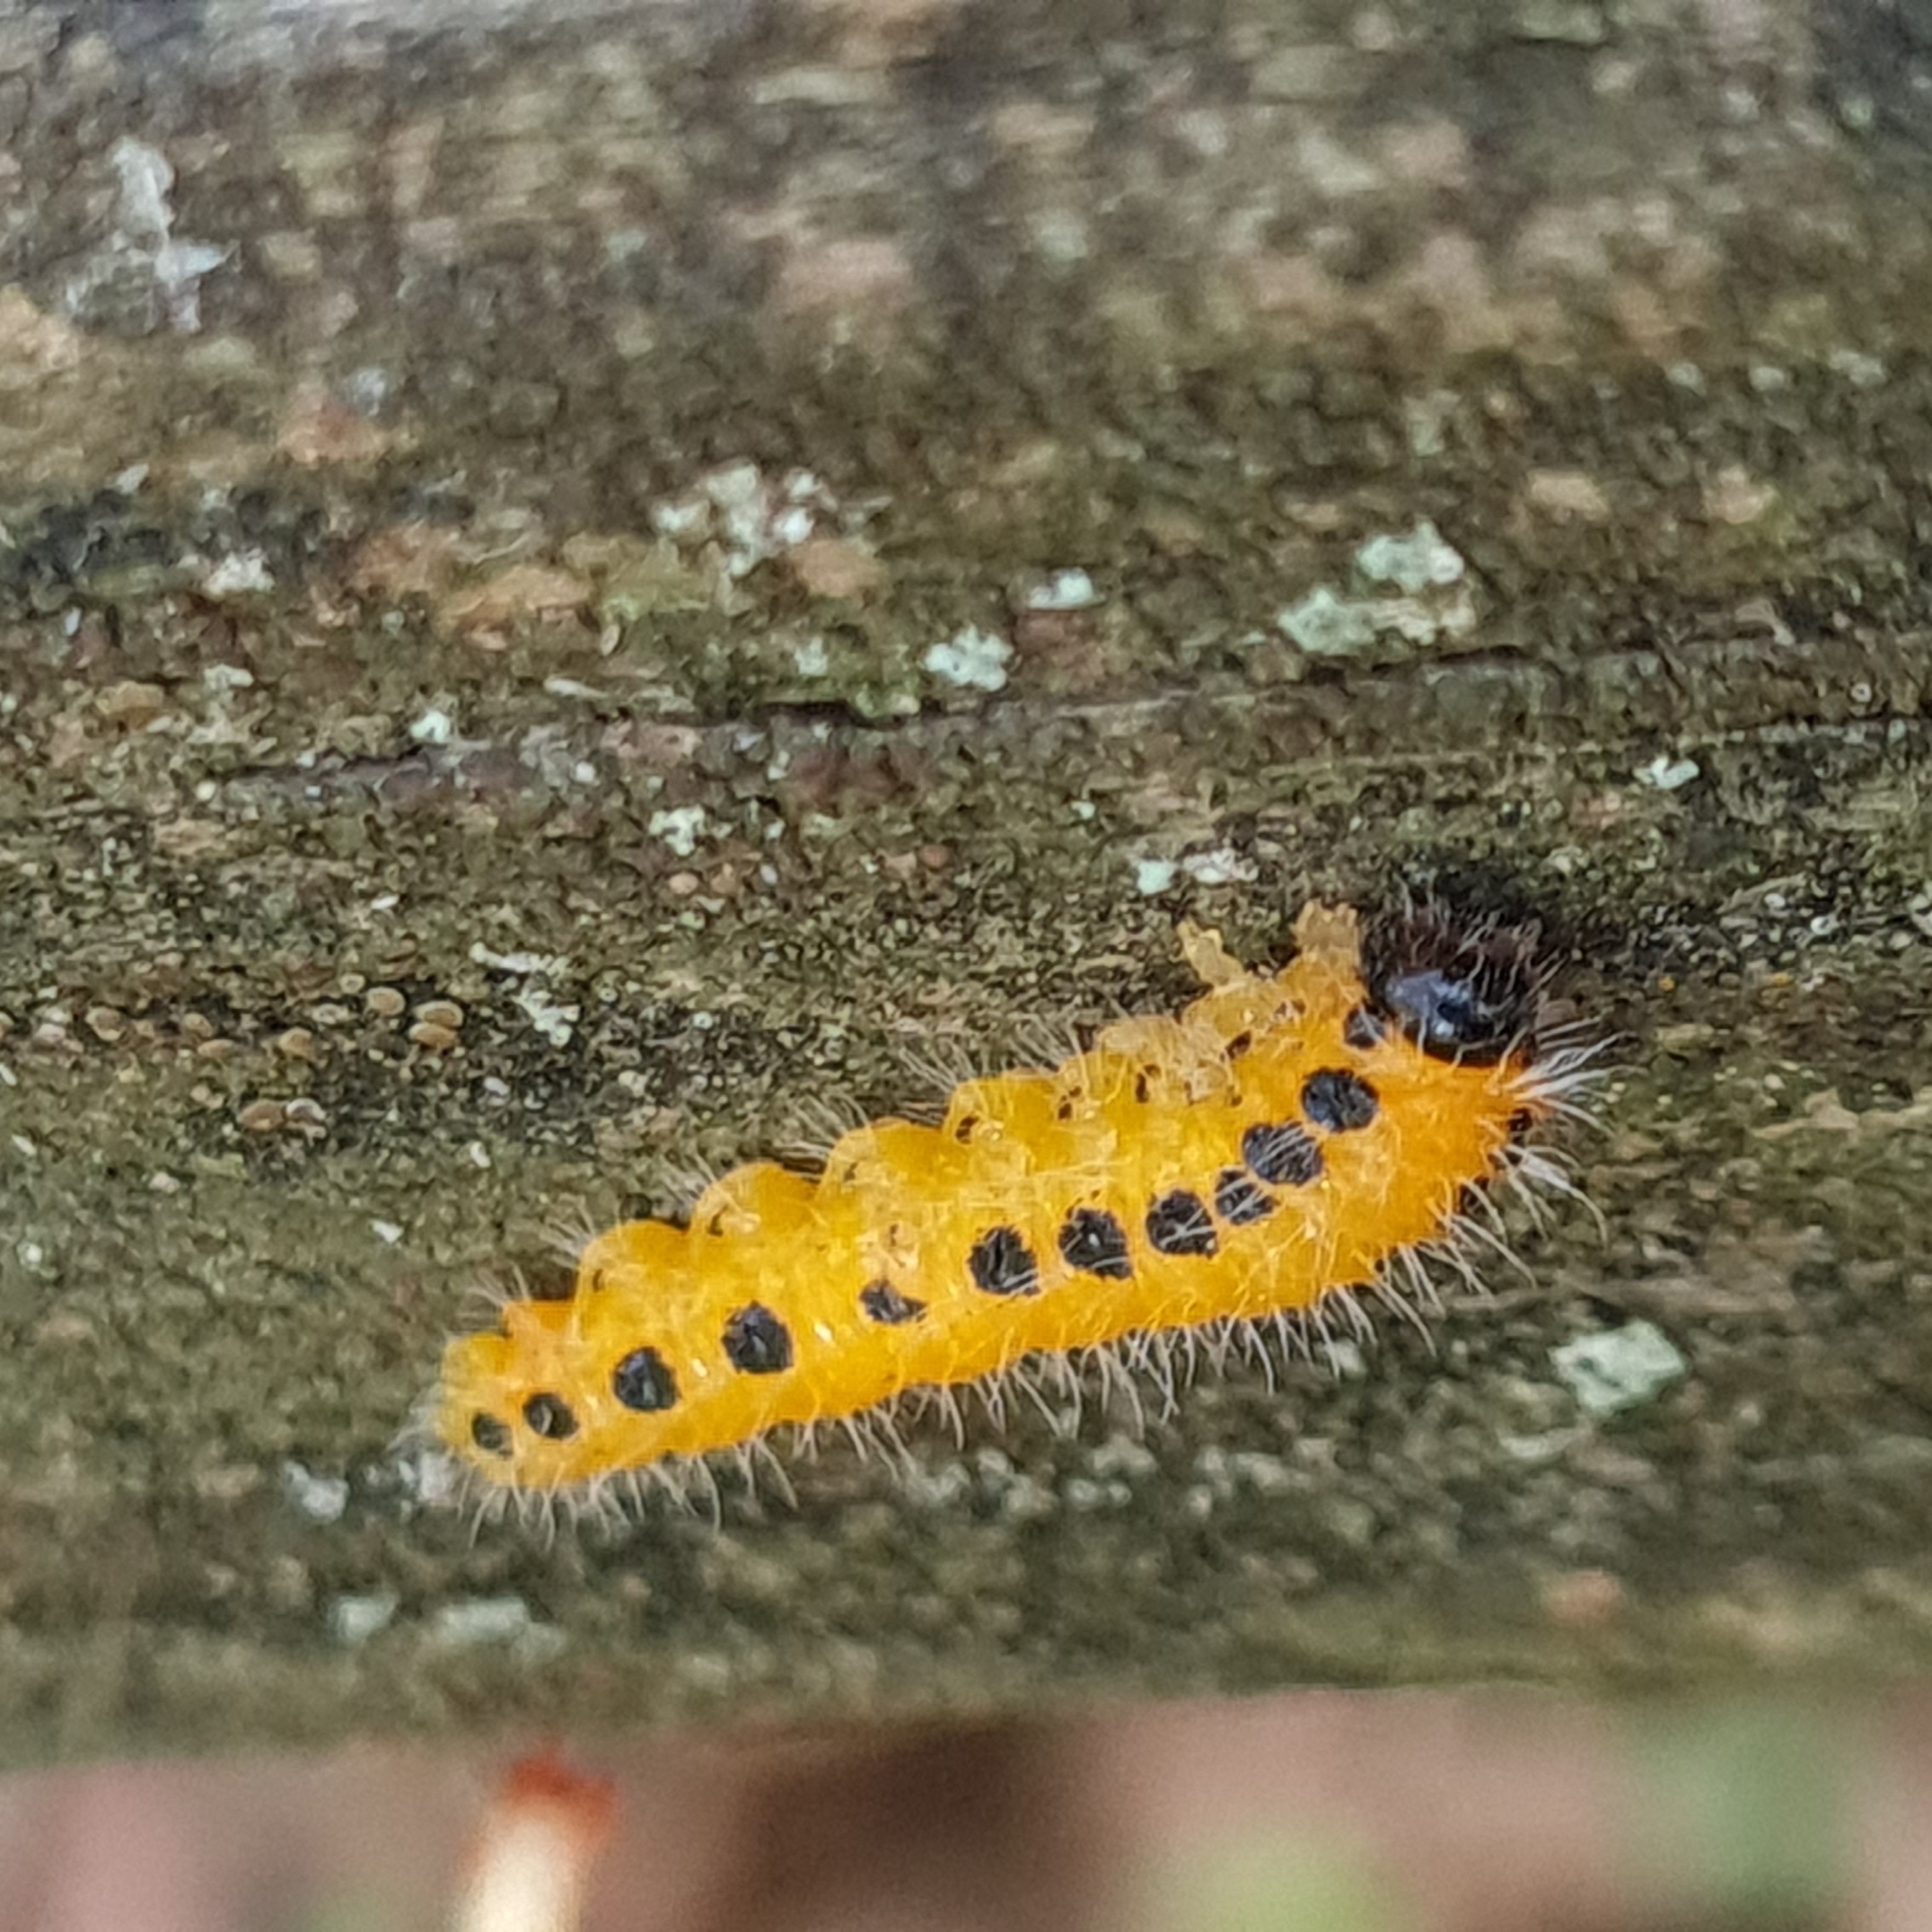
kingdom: Animalia
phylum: Arthropoda
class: Insecta
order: Hymenoptera
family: Tenthredinidae
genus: Cladius
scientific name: Cladius grandis
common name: Common sawfly
